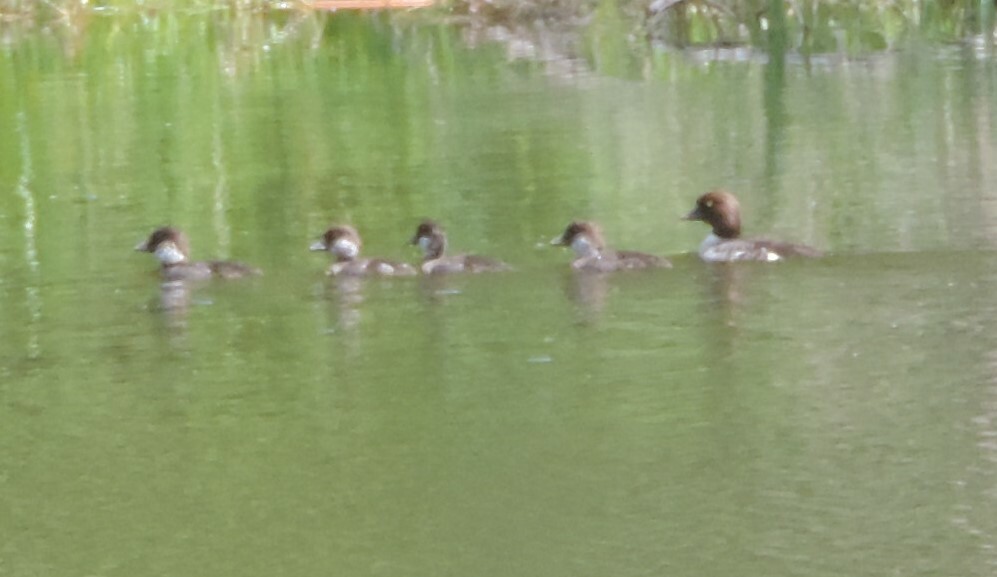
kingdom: Animalia
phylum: Chordata
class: Aves
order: Anseriformes
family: Anatidae
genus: Bucephala
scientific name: Bucephala islandica
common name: Barrow's goldeneye
